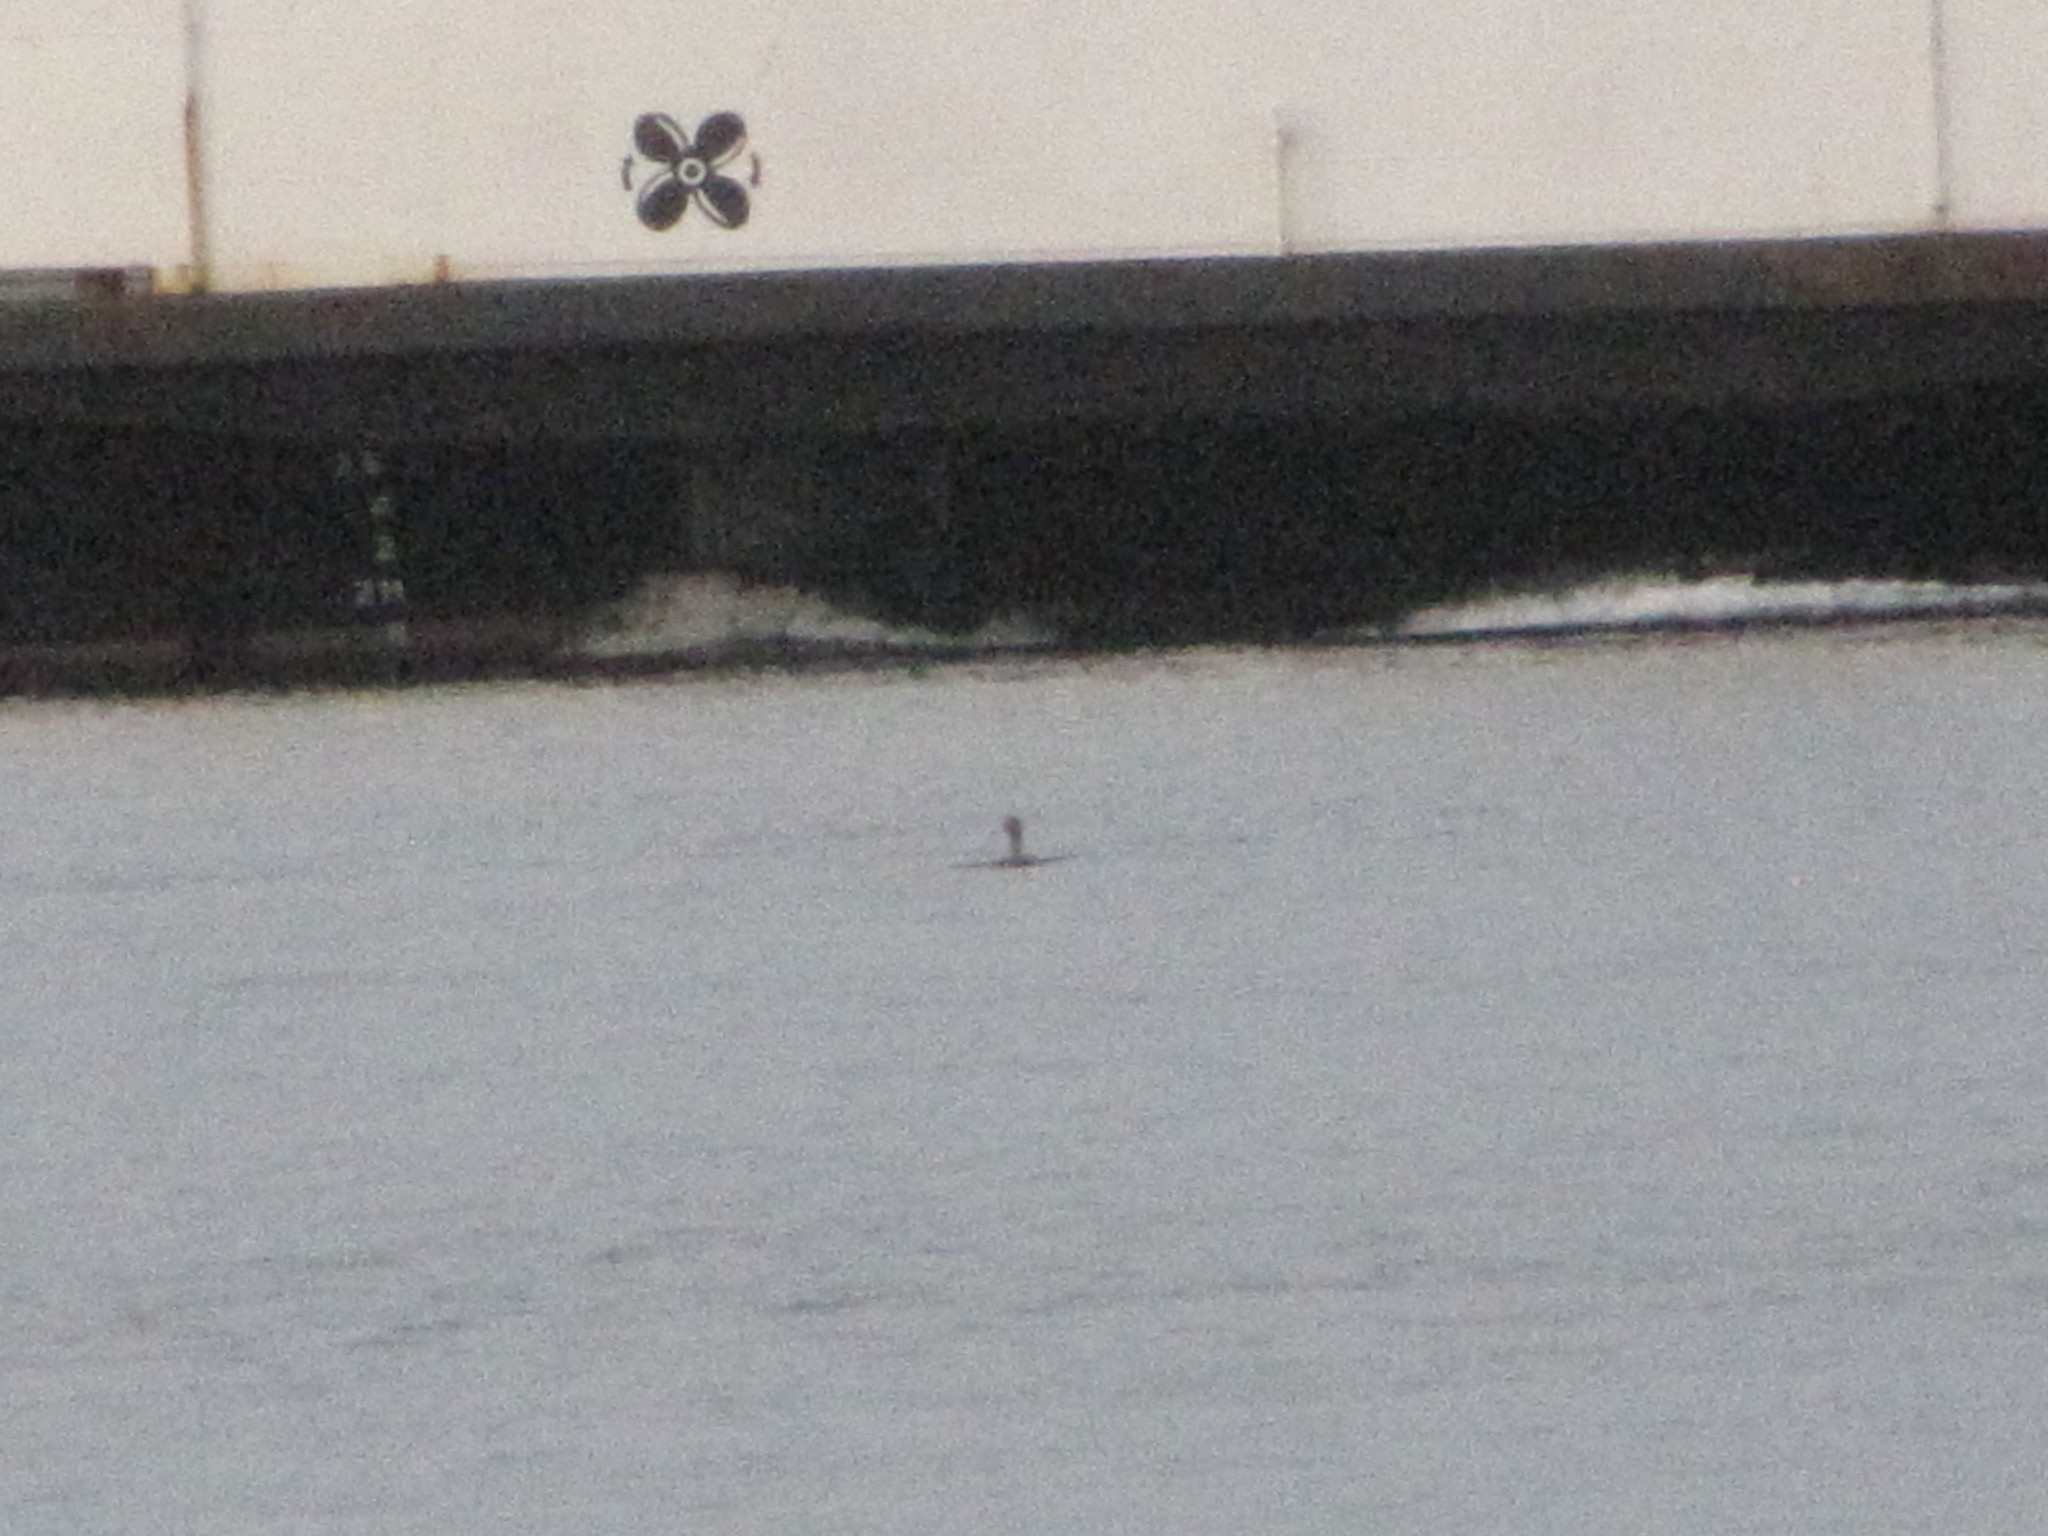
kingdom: Animalia
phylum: Chordata
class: Aves
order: Suliformes
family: Phalacrocoracidae
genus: Phalacrocorax
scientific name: Phalacrocorax auritus
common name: Double-crested cormorant
